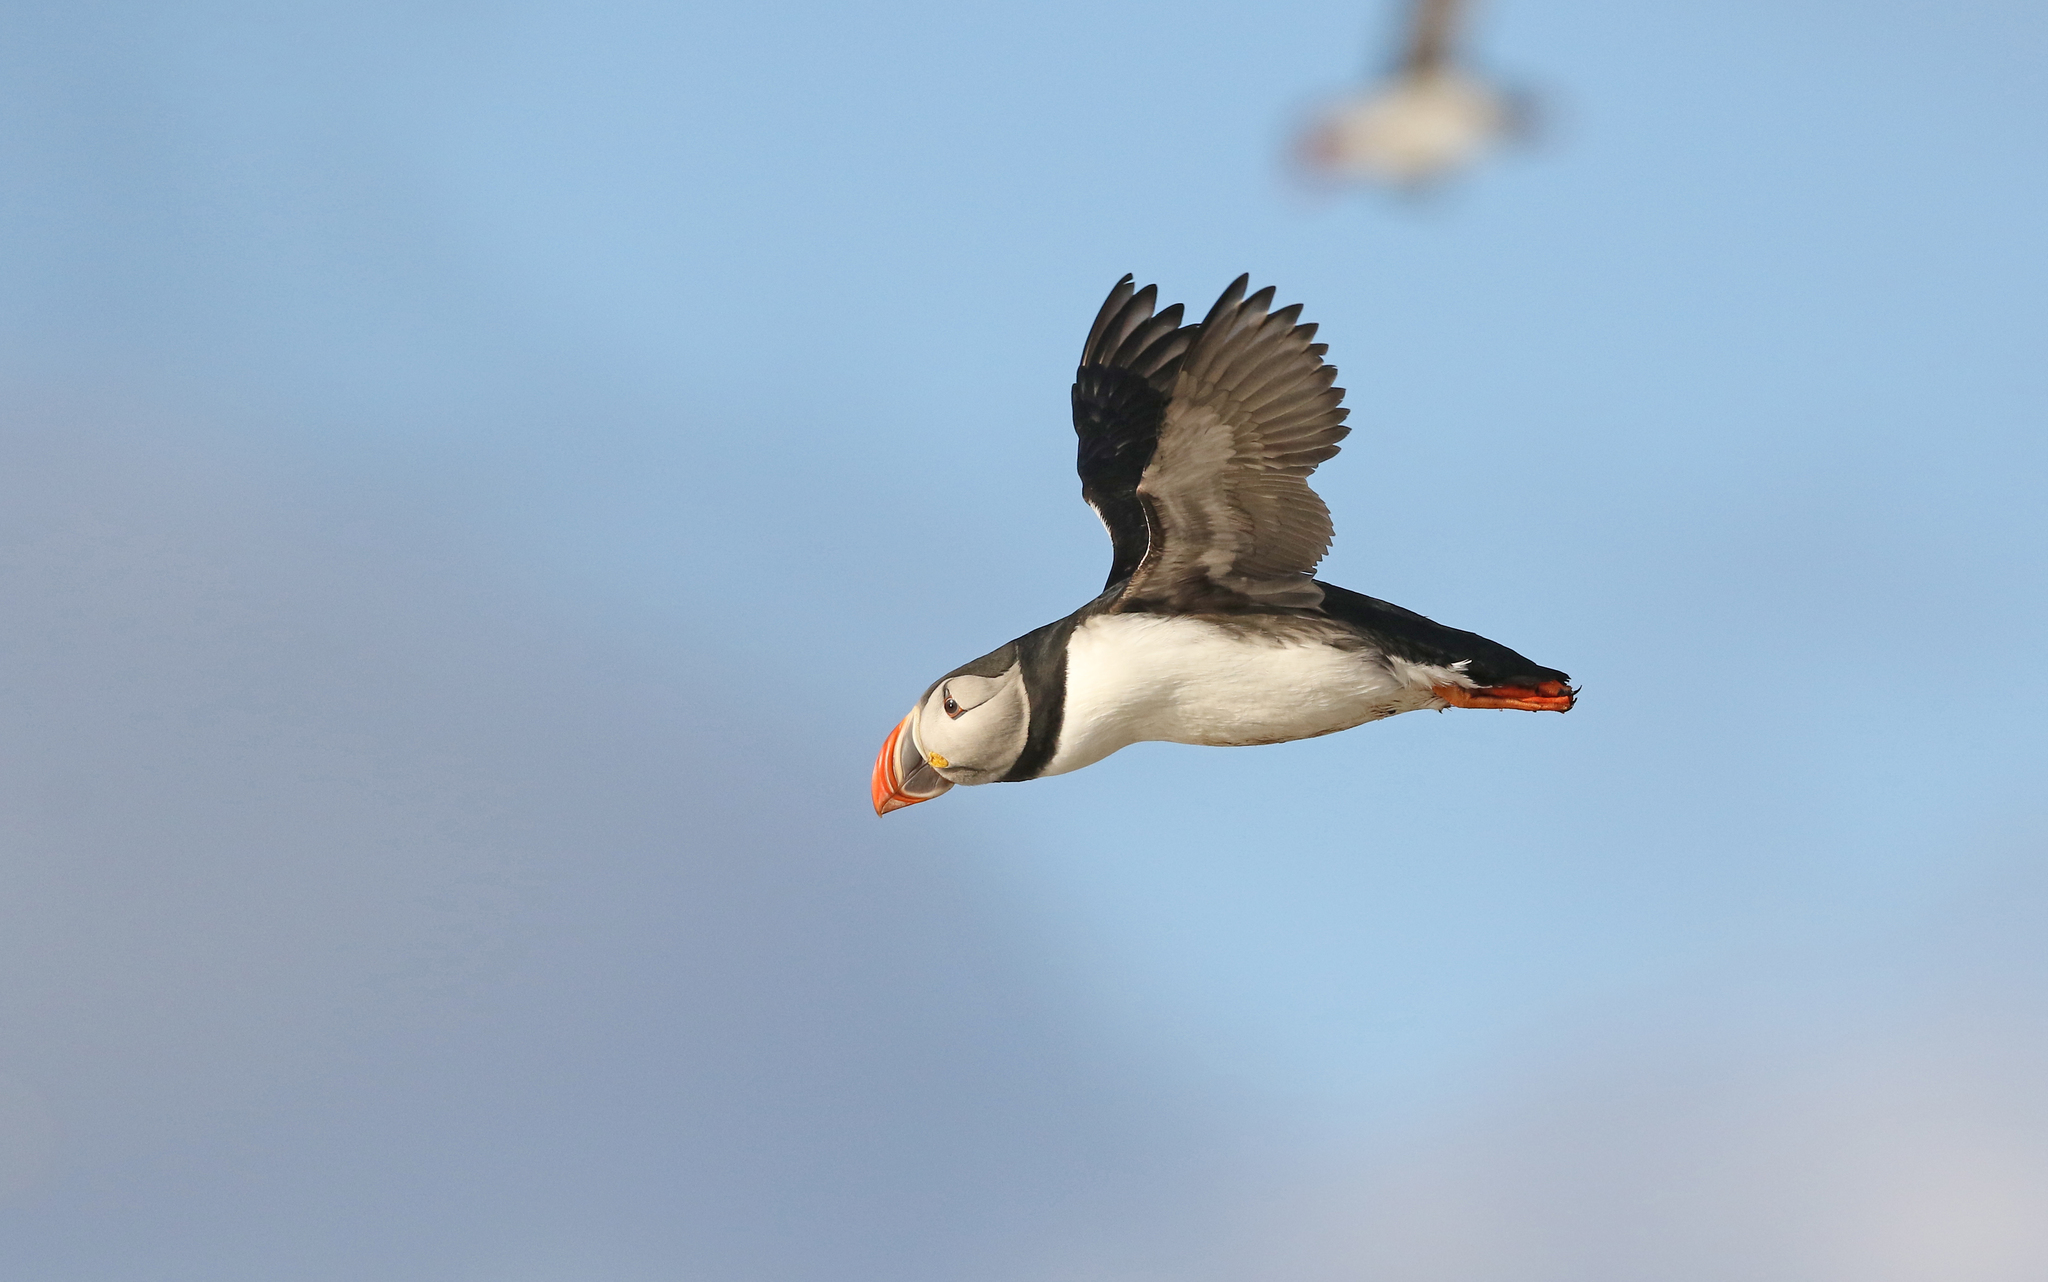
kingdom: Animalia
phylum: Chordata
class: Aves
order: Charadriiformes
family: Alcidae
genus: Fratercula
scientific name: Fratercula arctica
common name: Atlantic puffin
